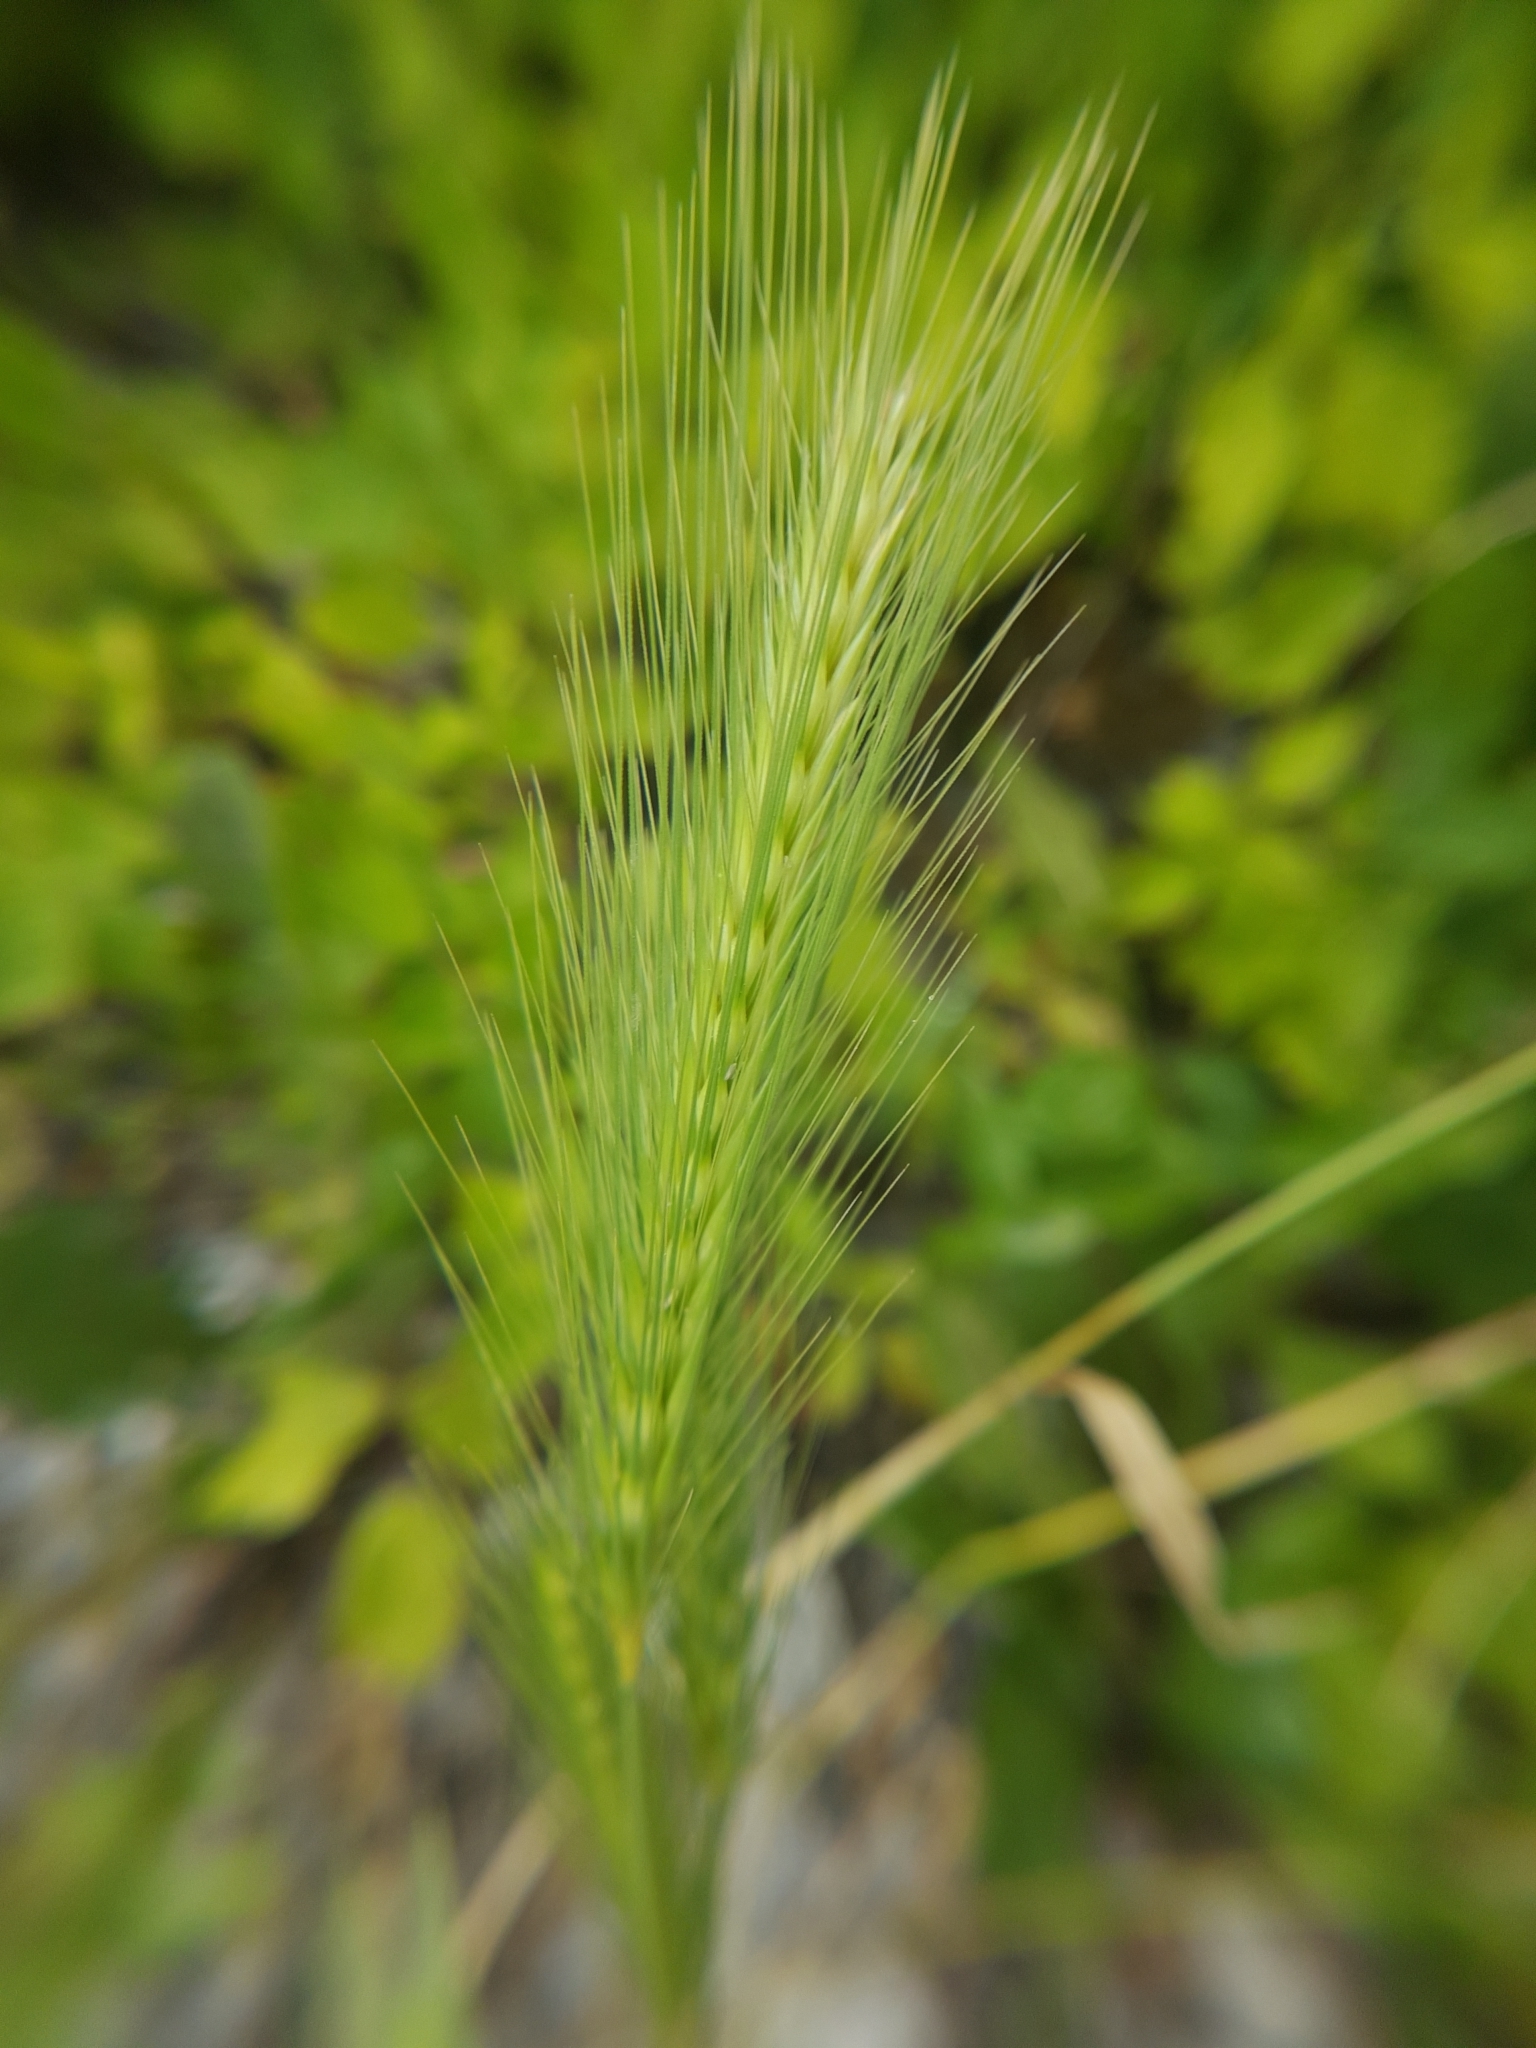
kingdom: Plantae
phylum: Tracheophyta
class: Liliopsida
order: Poales
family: Poaceae
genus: Hordeum
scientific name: Hordeum murinum
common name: Wall barley
